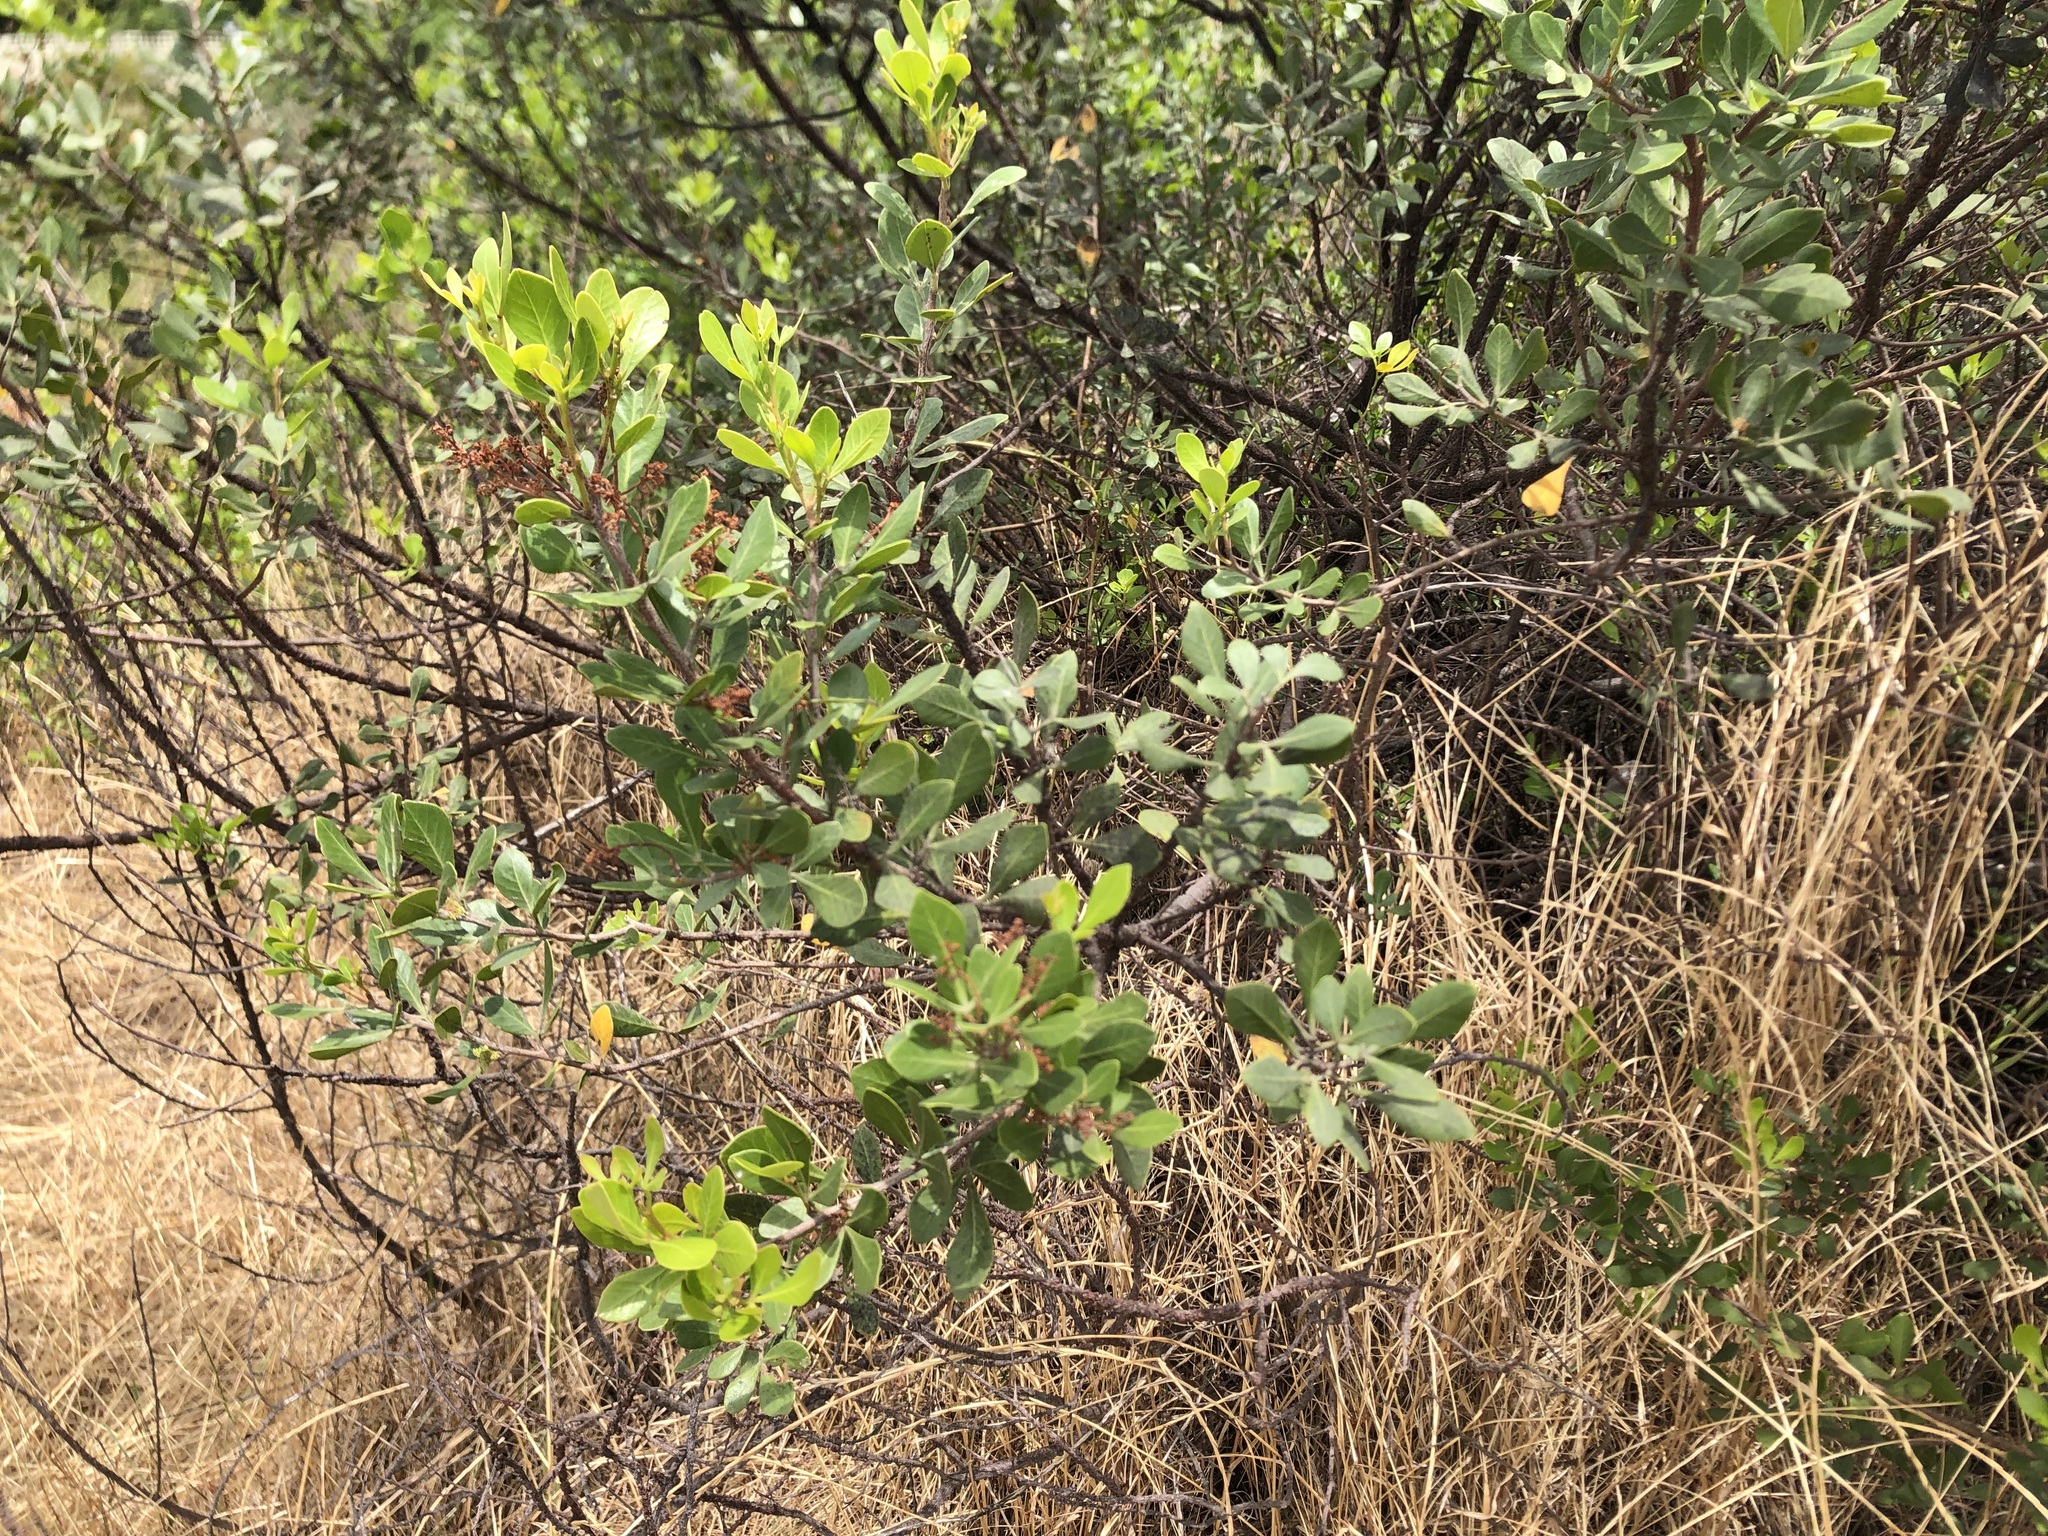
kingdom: Plantae
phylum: Tracheophyta
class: Magnoliopsida
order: Sapindales
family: Anacardiaceae
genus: Searsia
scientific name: Searsia lucida
